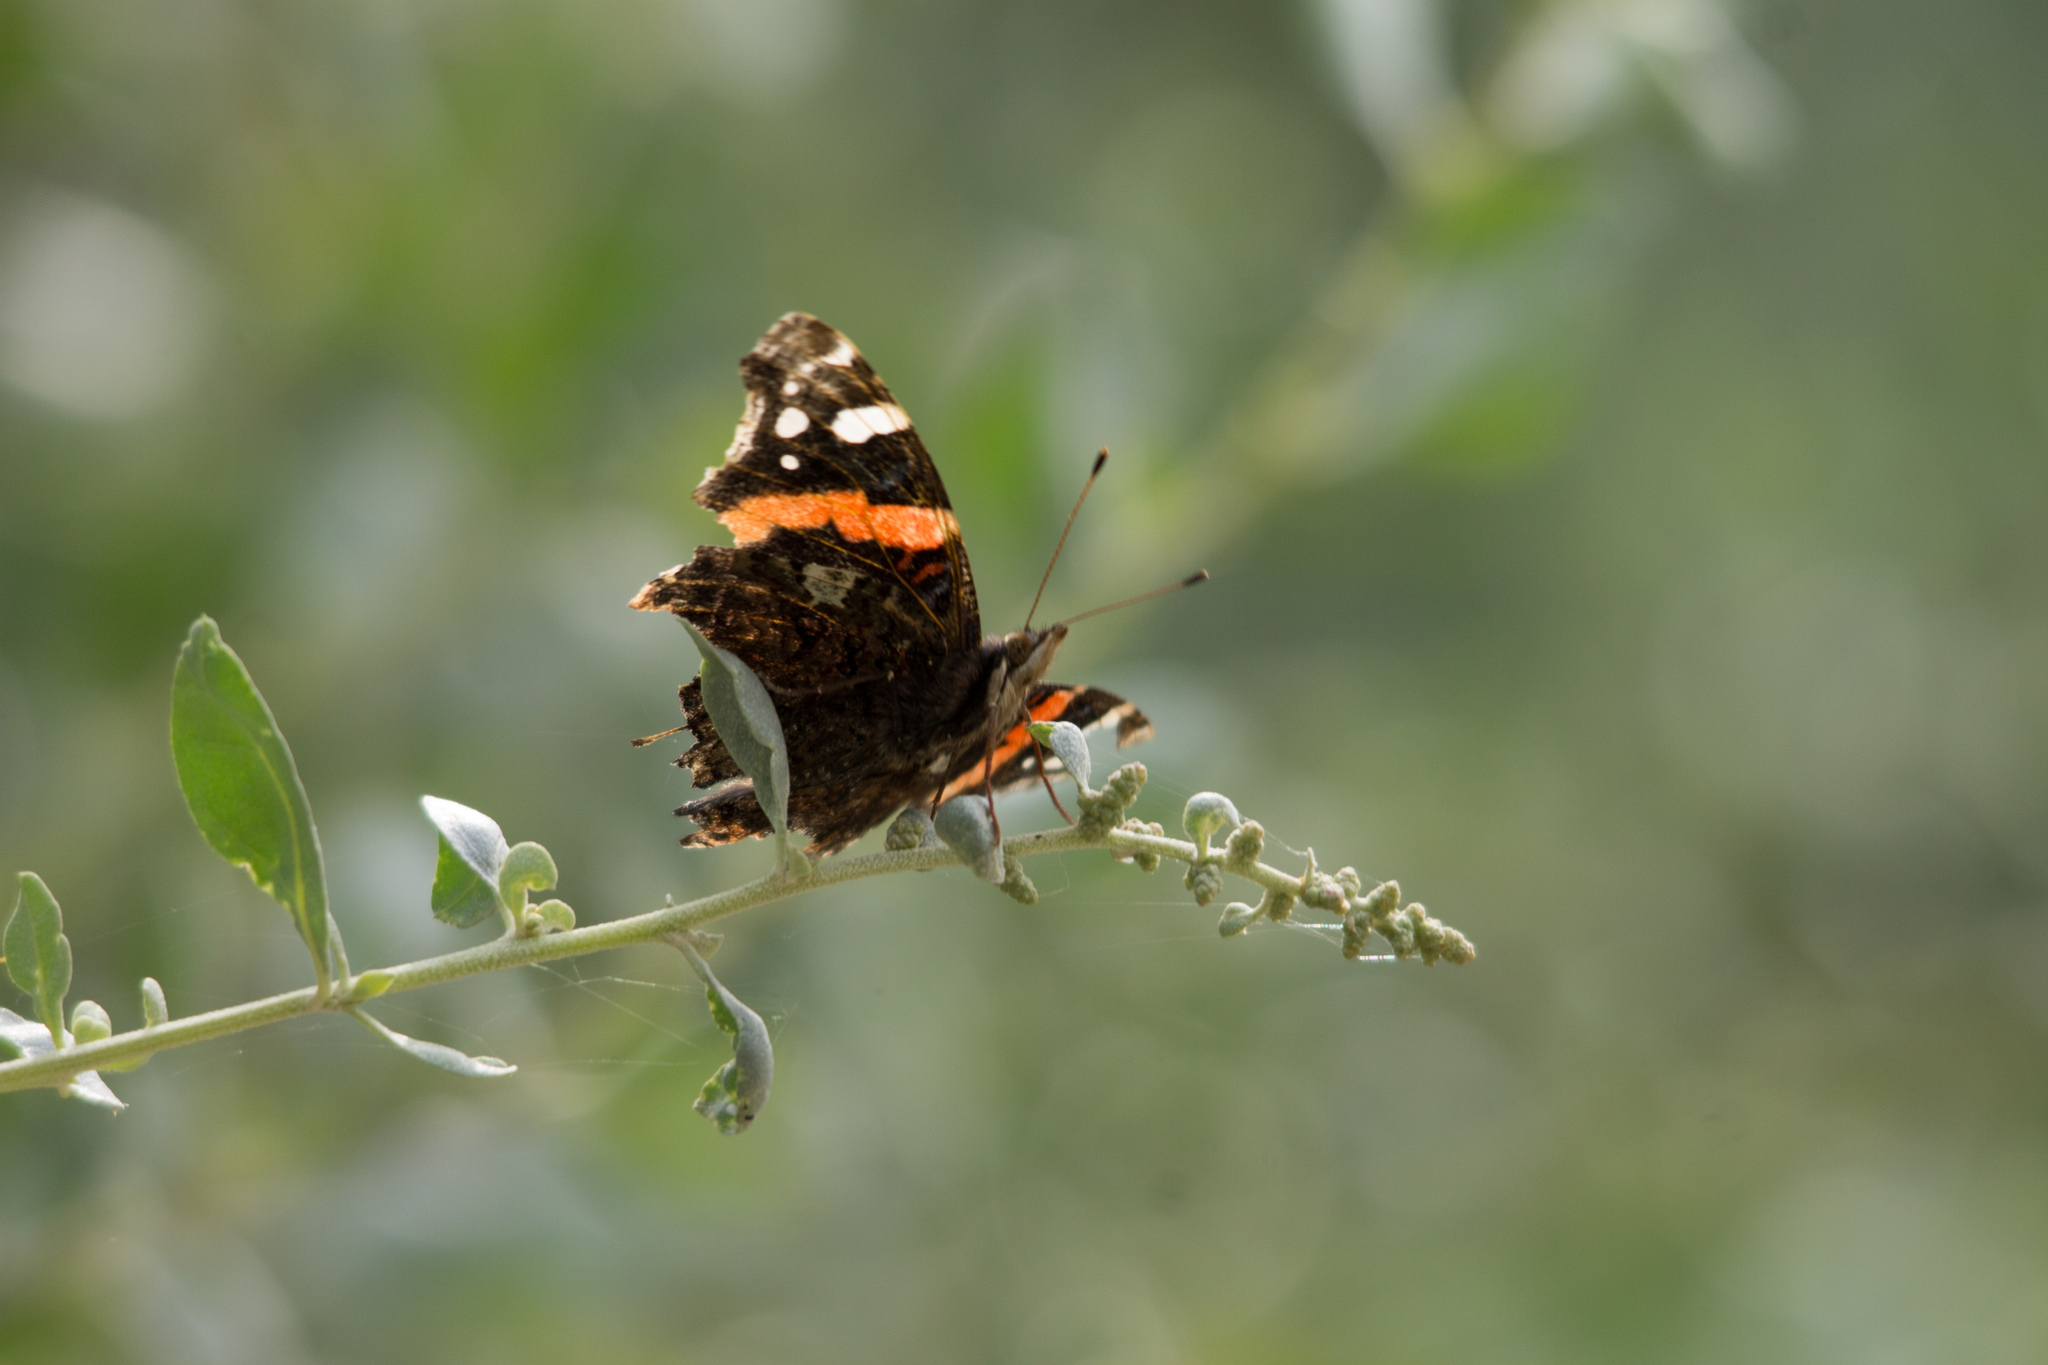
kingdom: Animalia
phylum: Arthropoda
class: Insecta
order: Lepidoptera
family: Nymphalidae
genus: Vanessa
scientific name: Vanessa atalanta
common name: Red admiral
